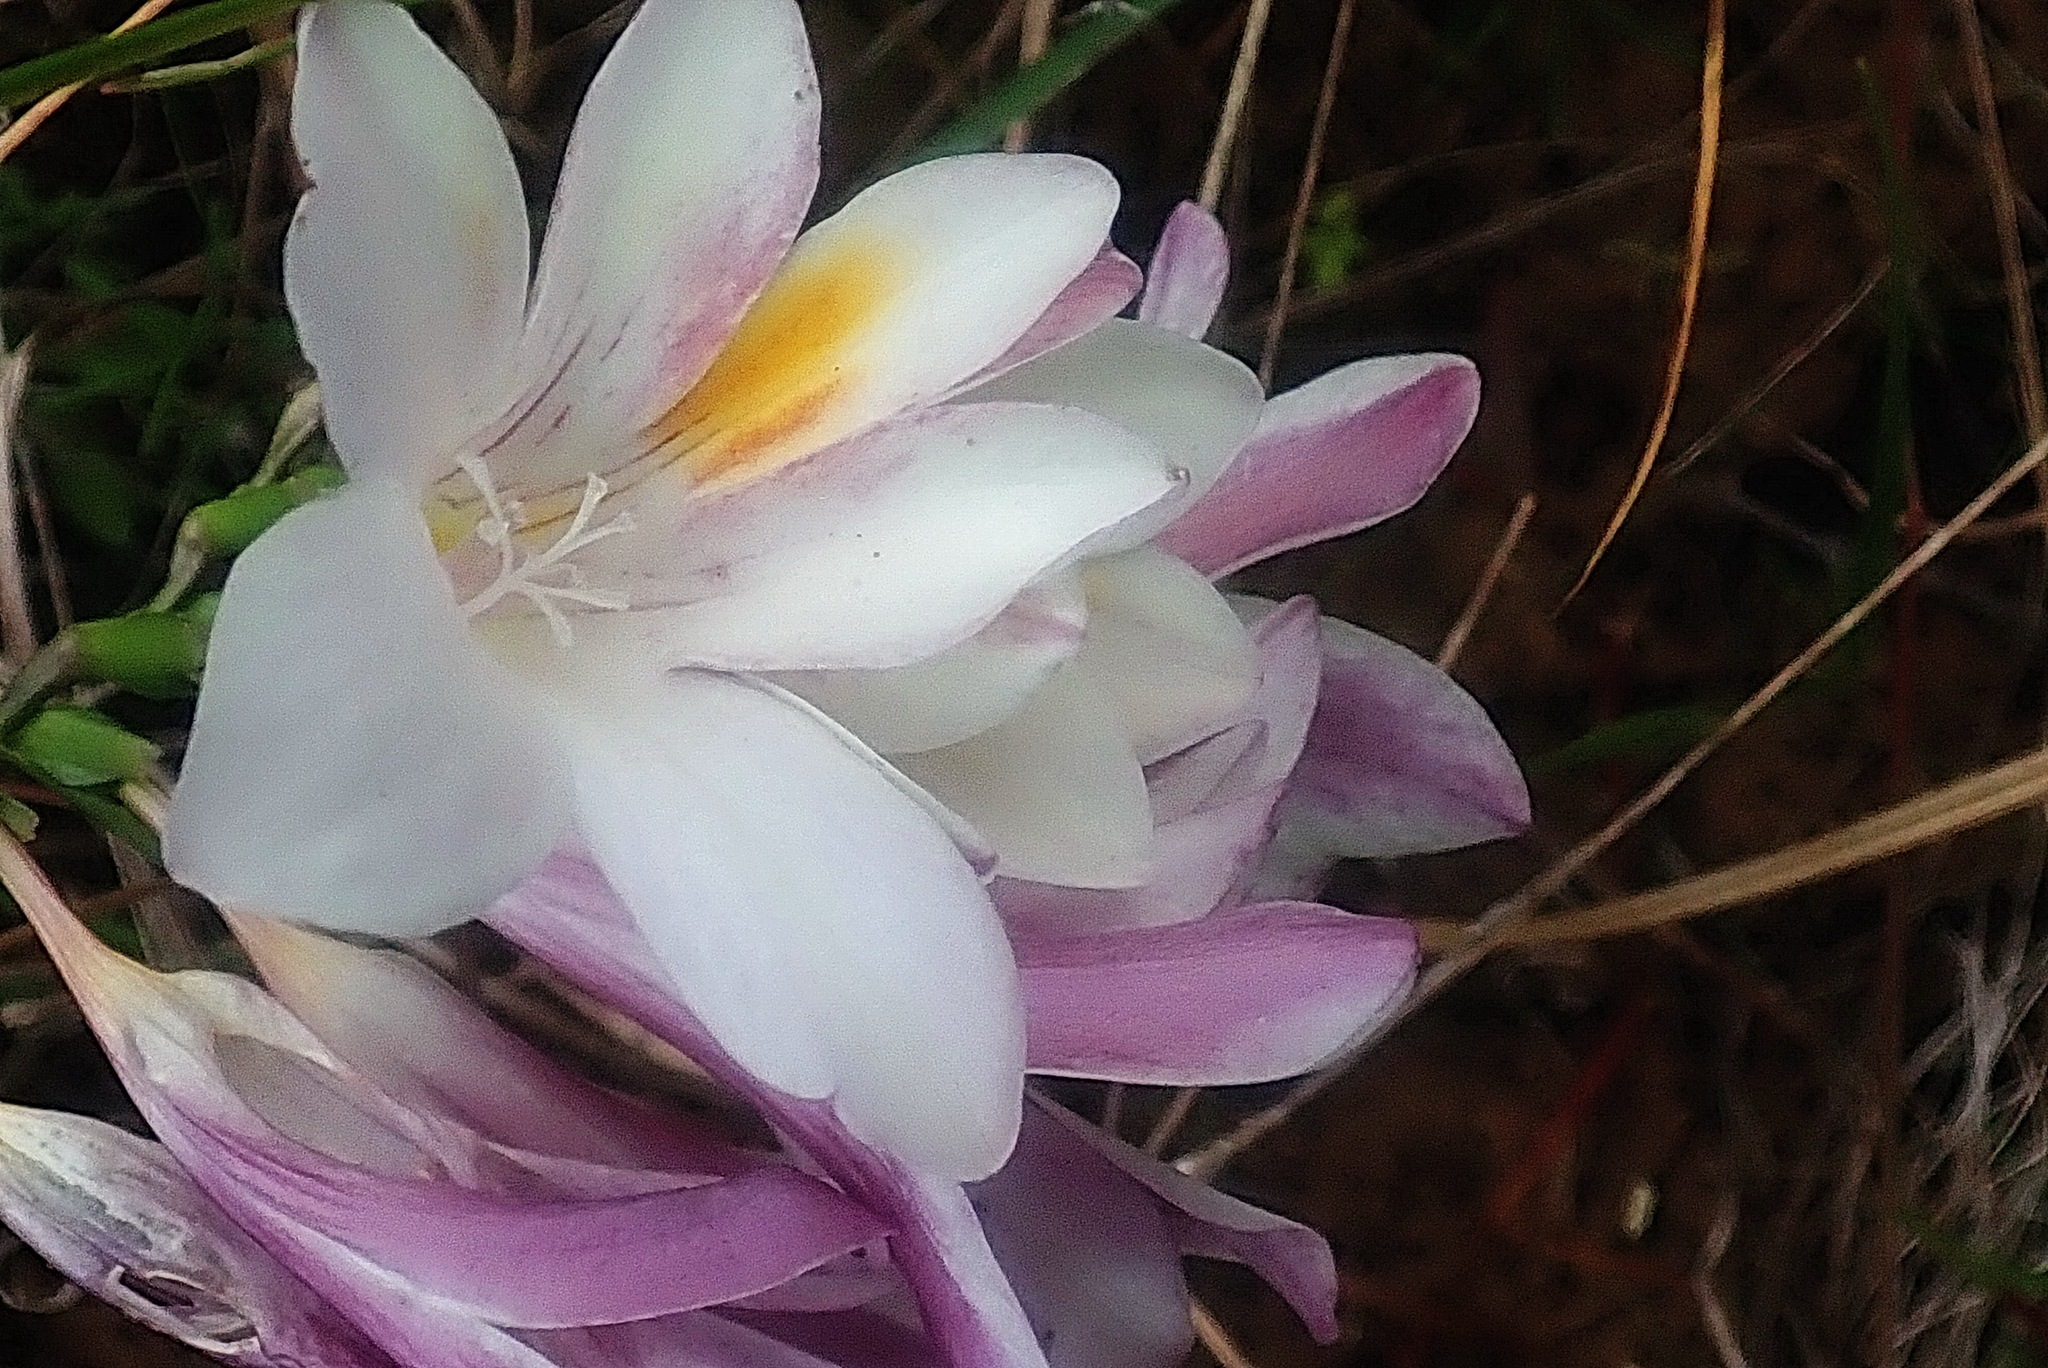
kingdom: Plantae
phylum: Tracheophyta
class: Liliopsida
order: Asparagales
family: Iridaceae
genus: Freesia
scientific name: Freesia leichtlinii
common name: Freesia
